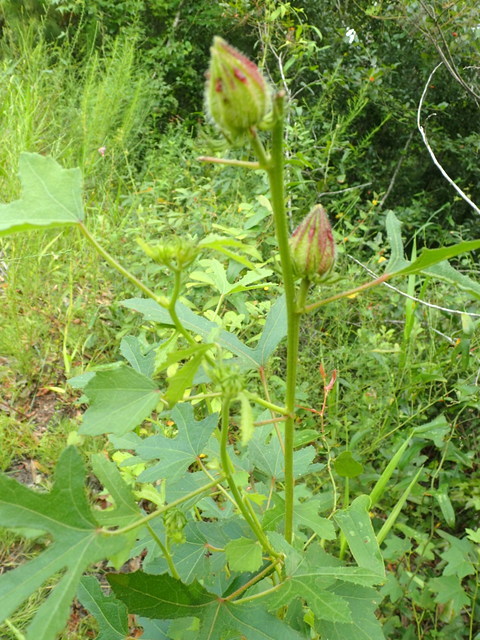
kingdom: Plantae
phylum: Tracheophyta
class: Magnoliopsida
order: Malvales
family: Malvaceae
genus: Hibiscus
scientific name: Hibiscus aculeatus
